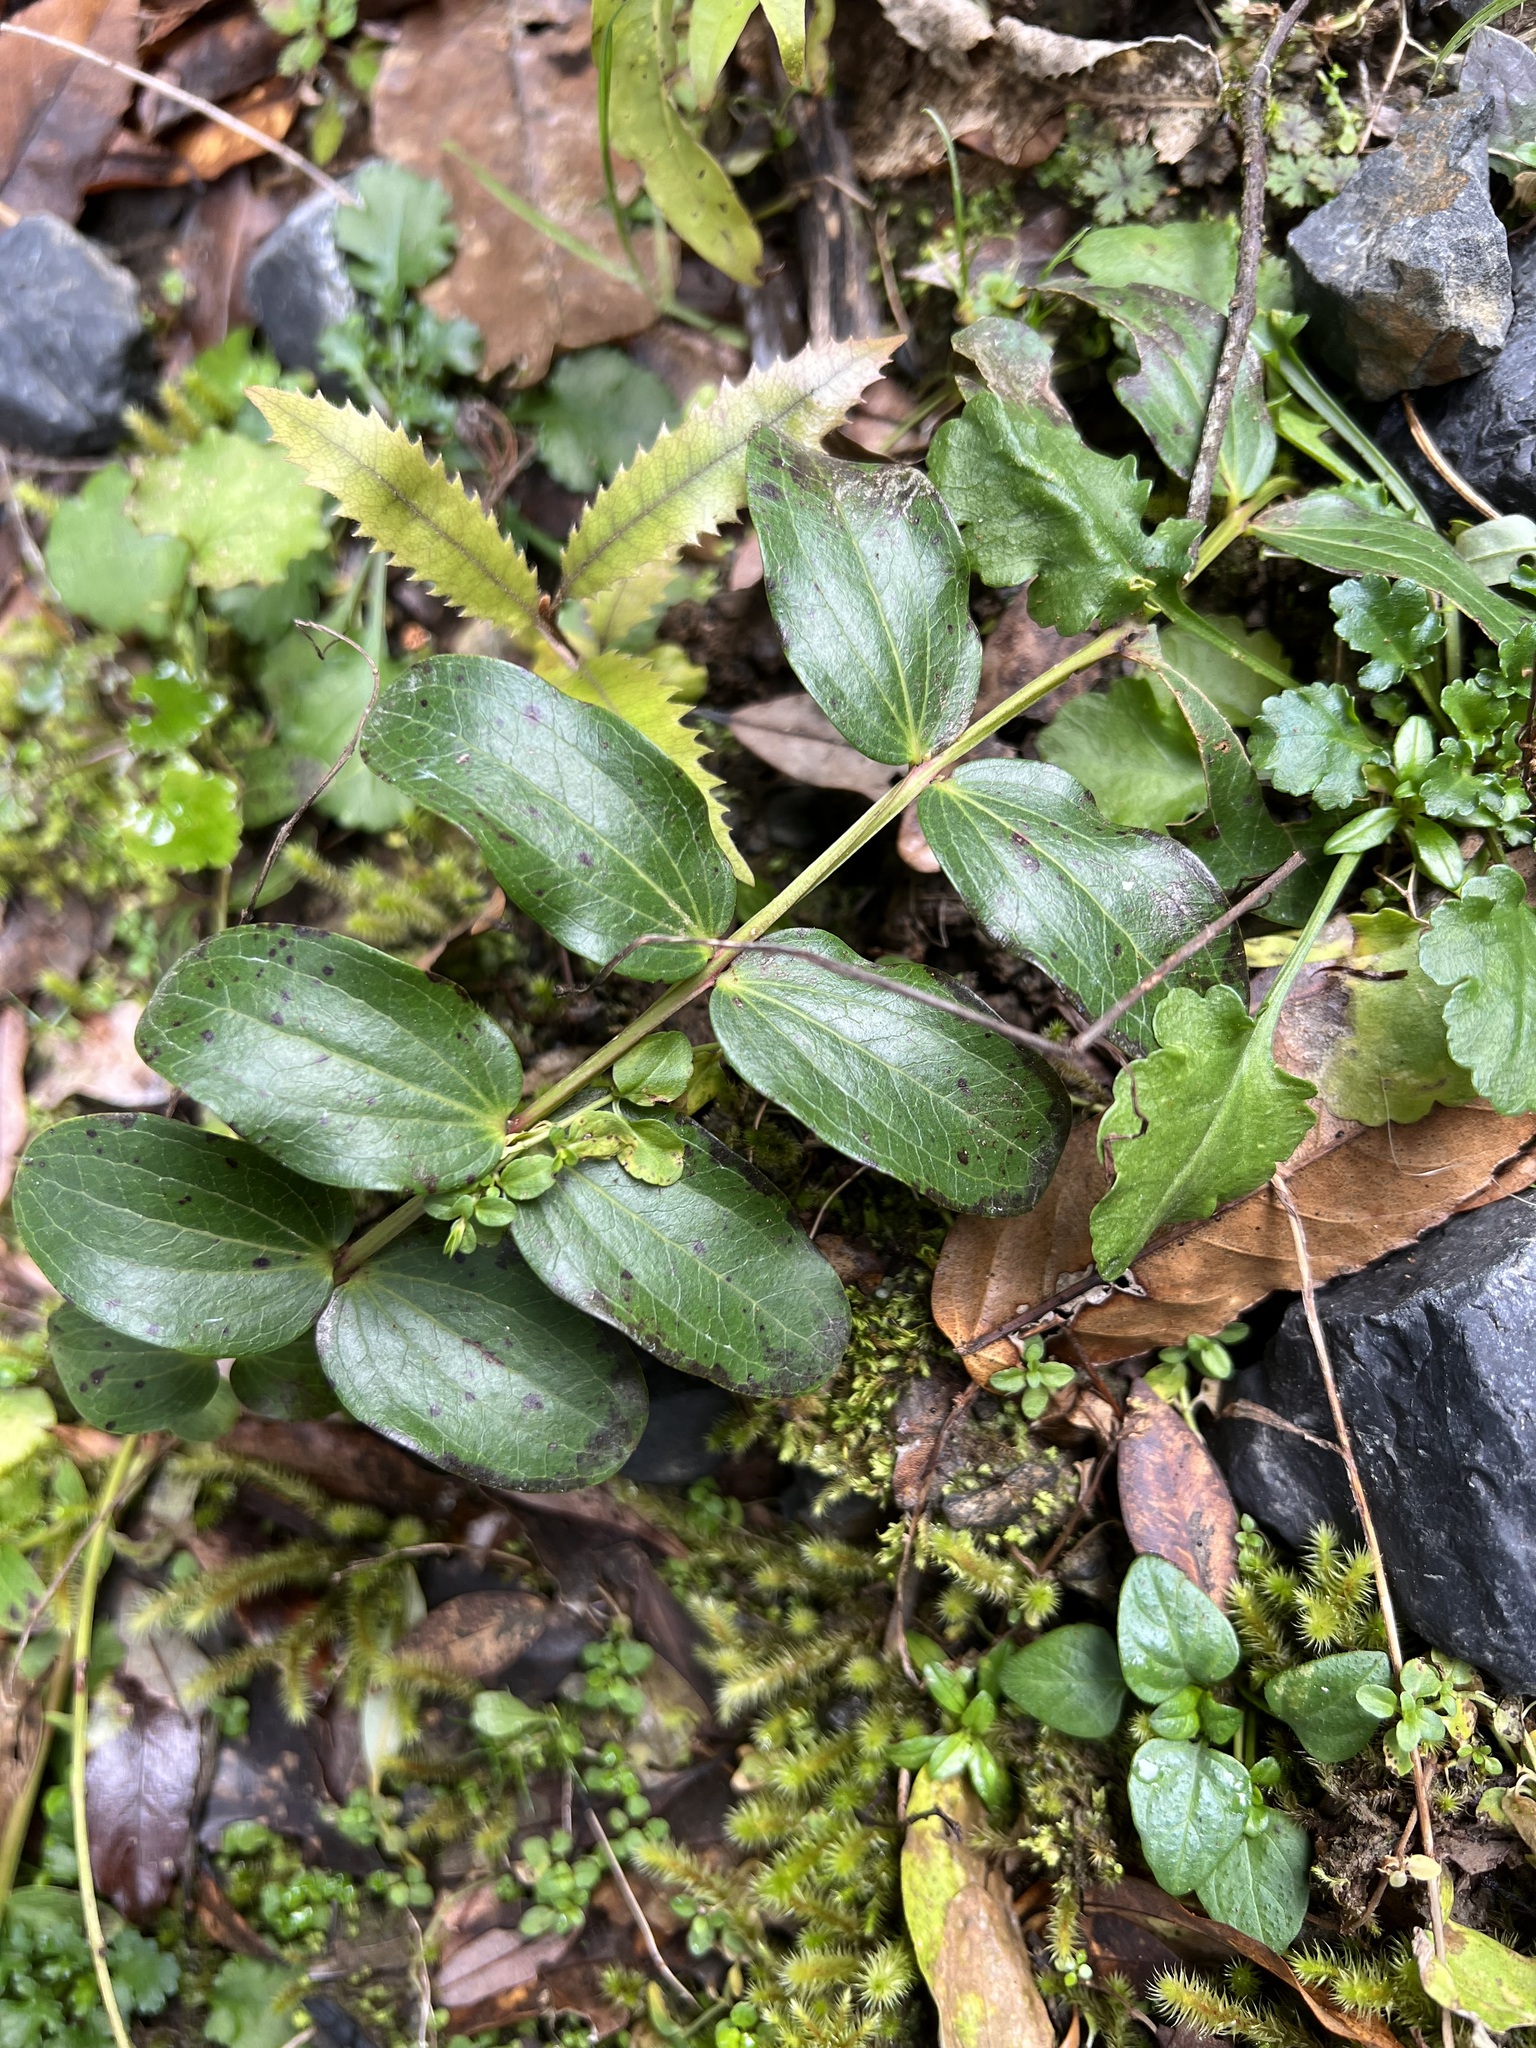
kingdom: Plantae
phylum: Tracheophyta
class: Magnoliopsida
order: Cucurbitales
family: Coriariaceae
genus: Coriaria
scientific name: Coriaria arborea
